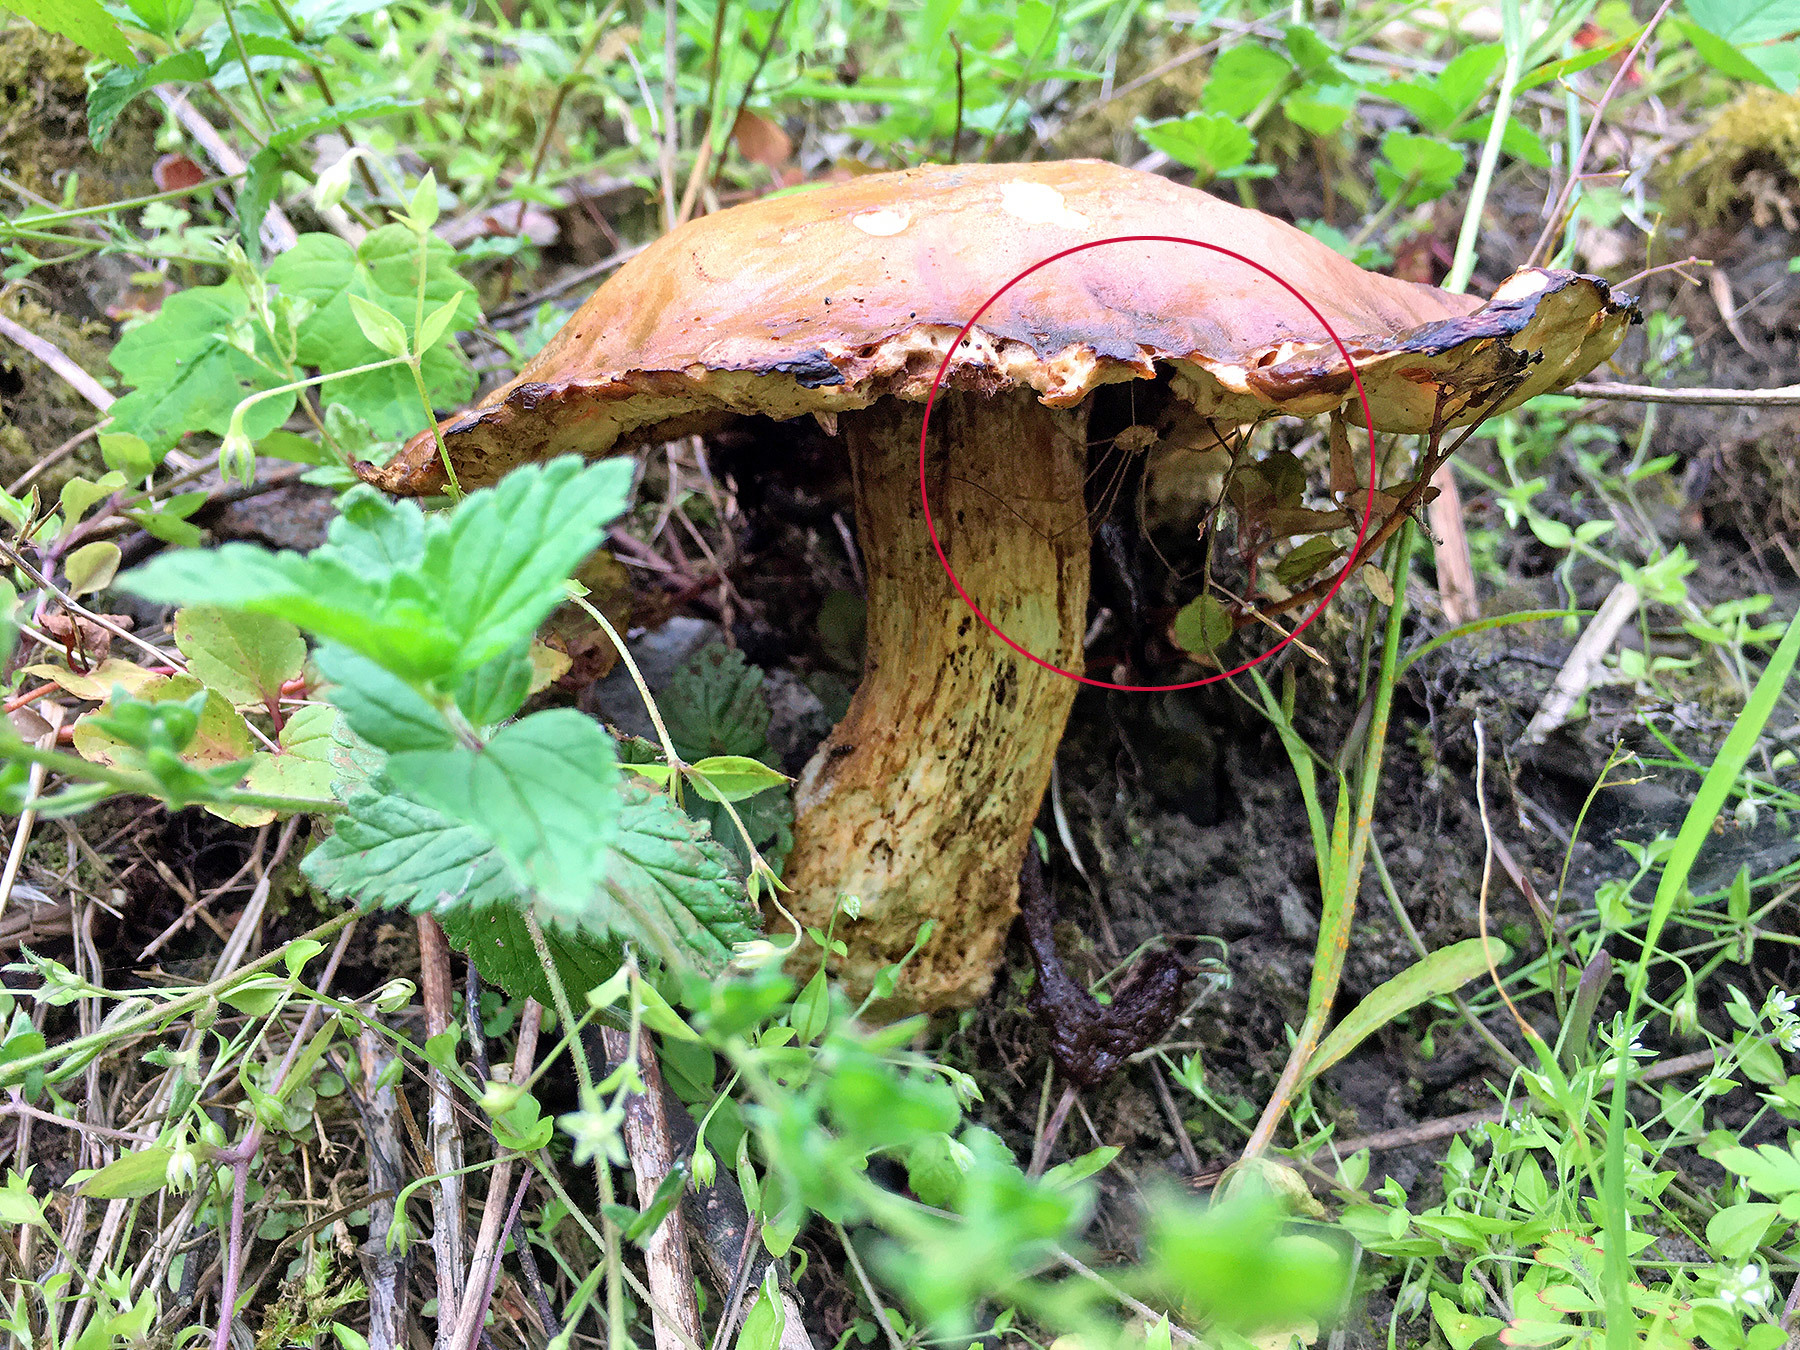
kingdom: Animalia
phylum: Arthropoda
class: Arachnida
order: Opiliones
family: Phalangiidae
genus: Rilaena
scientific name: Rilaena triangularis
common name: Spring harvestman
